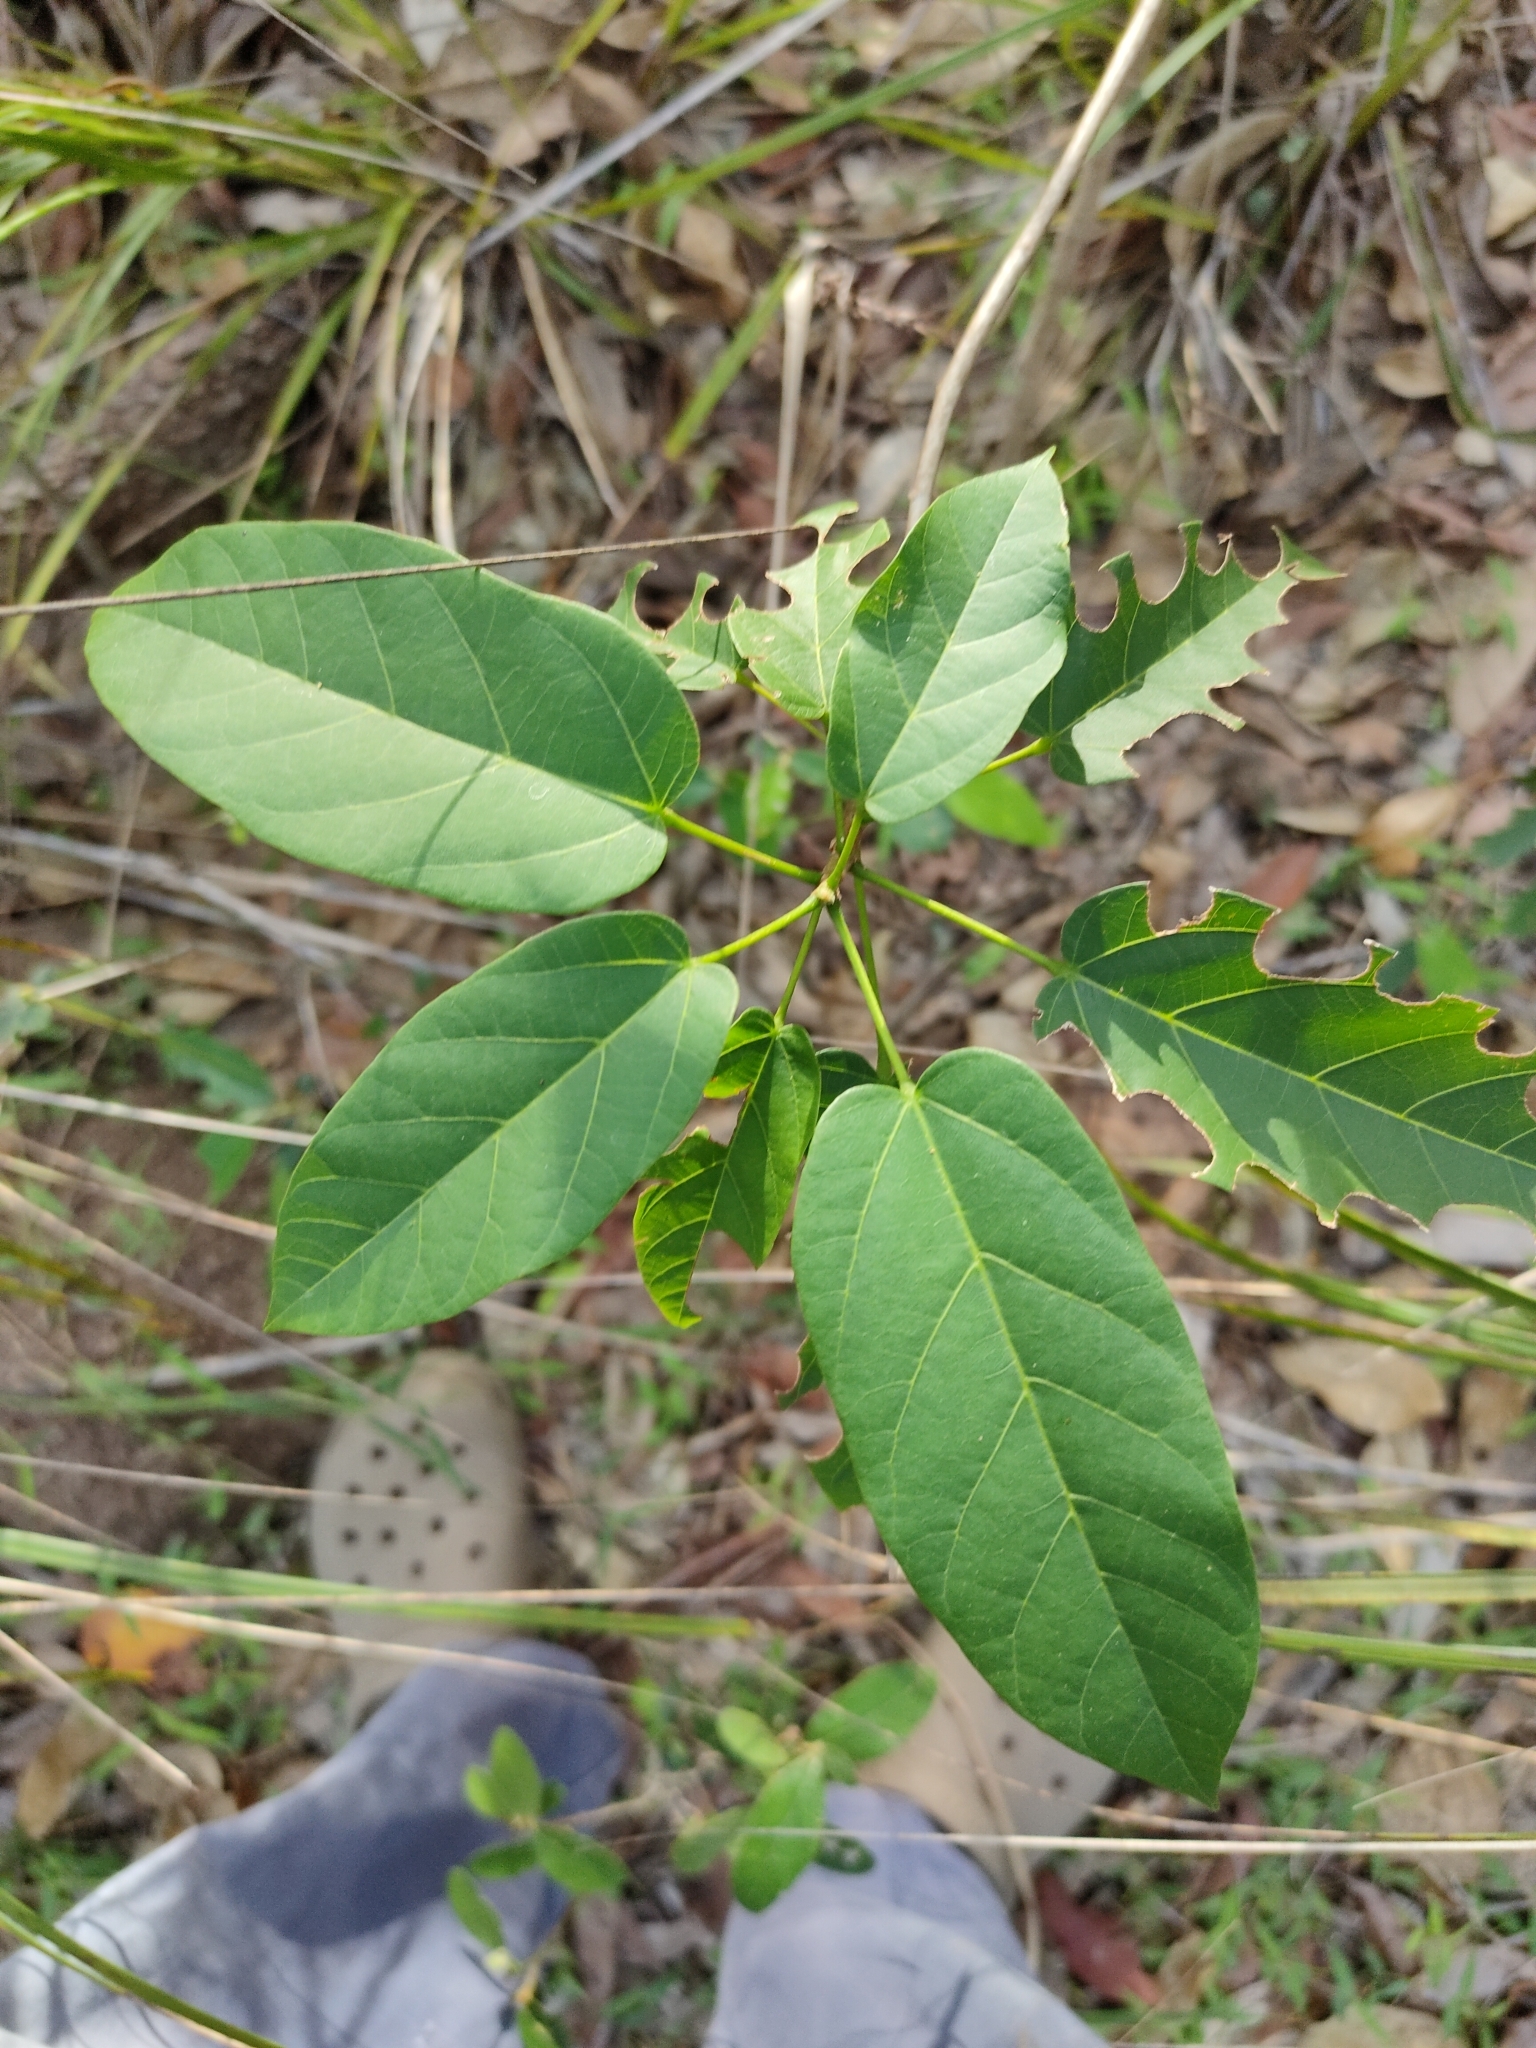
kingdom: Plantae
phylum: Tracheophyta
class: Magnoliopsida
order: Malvales
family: Malvaceae
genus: Sterculia
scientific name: Sterculia quadrifida
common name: Orange-fruit kurrajong
